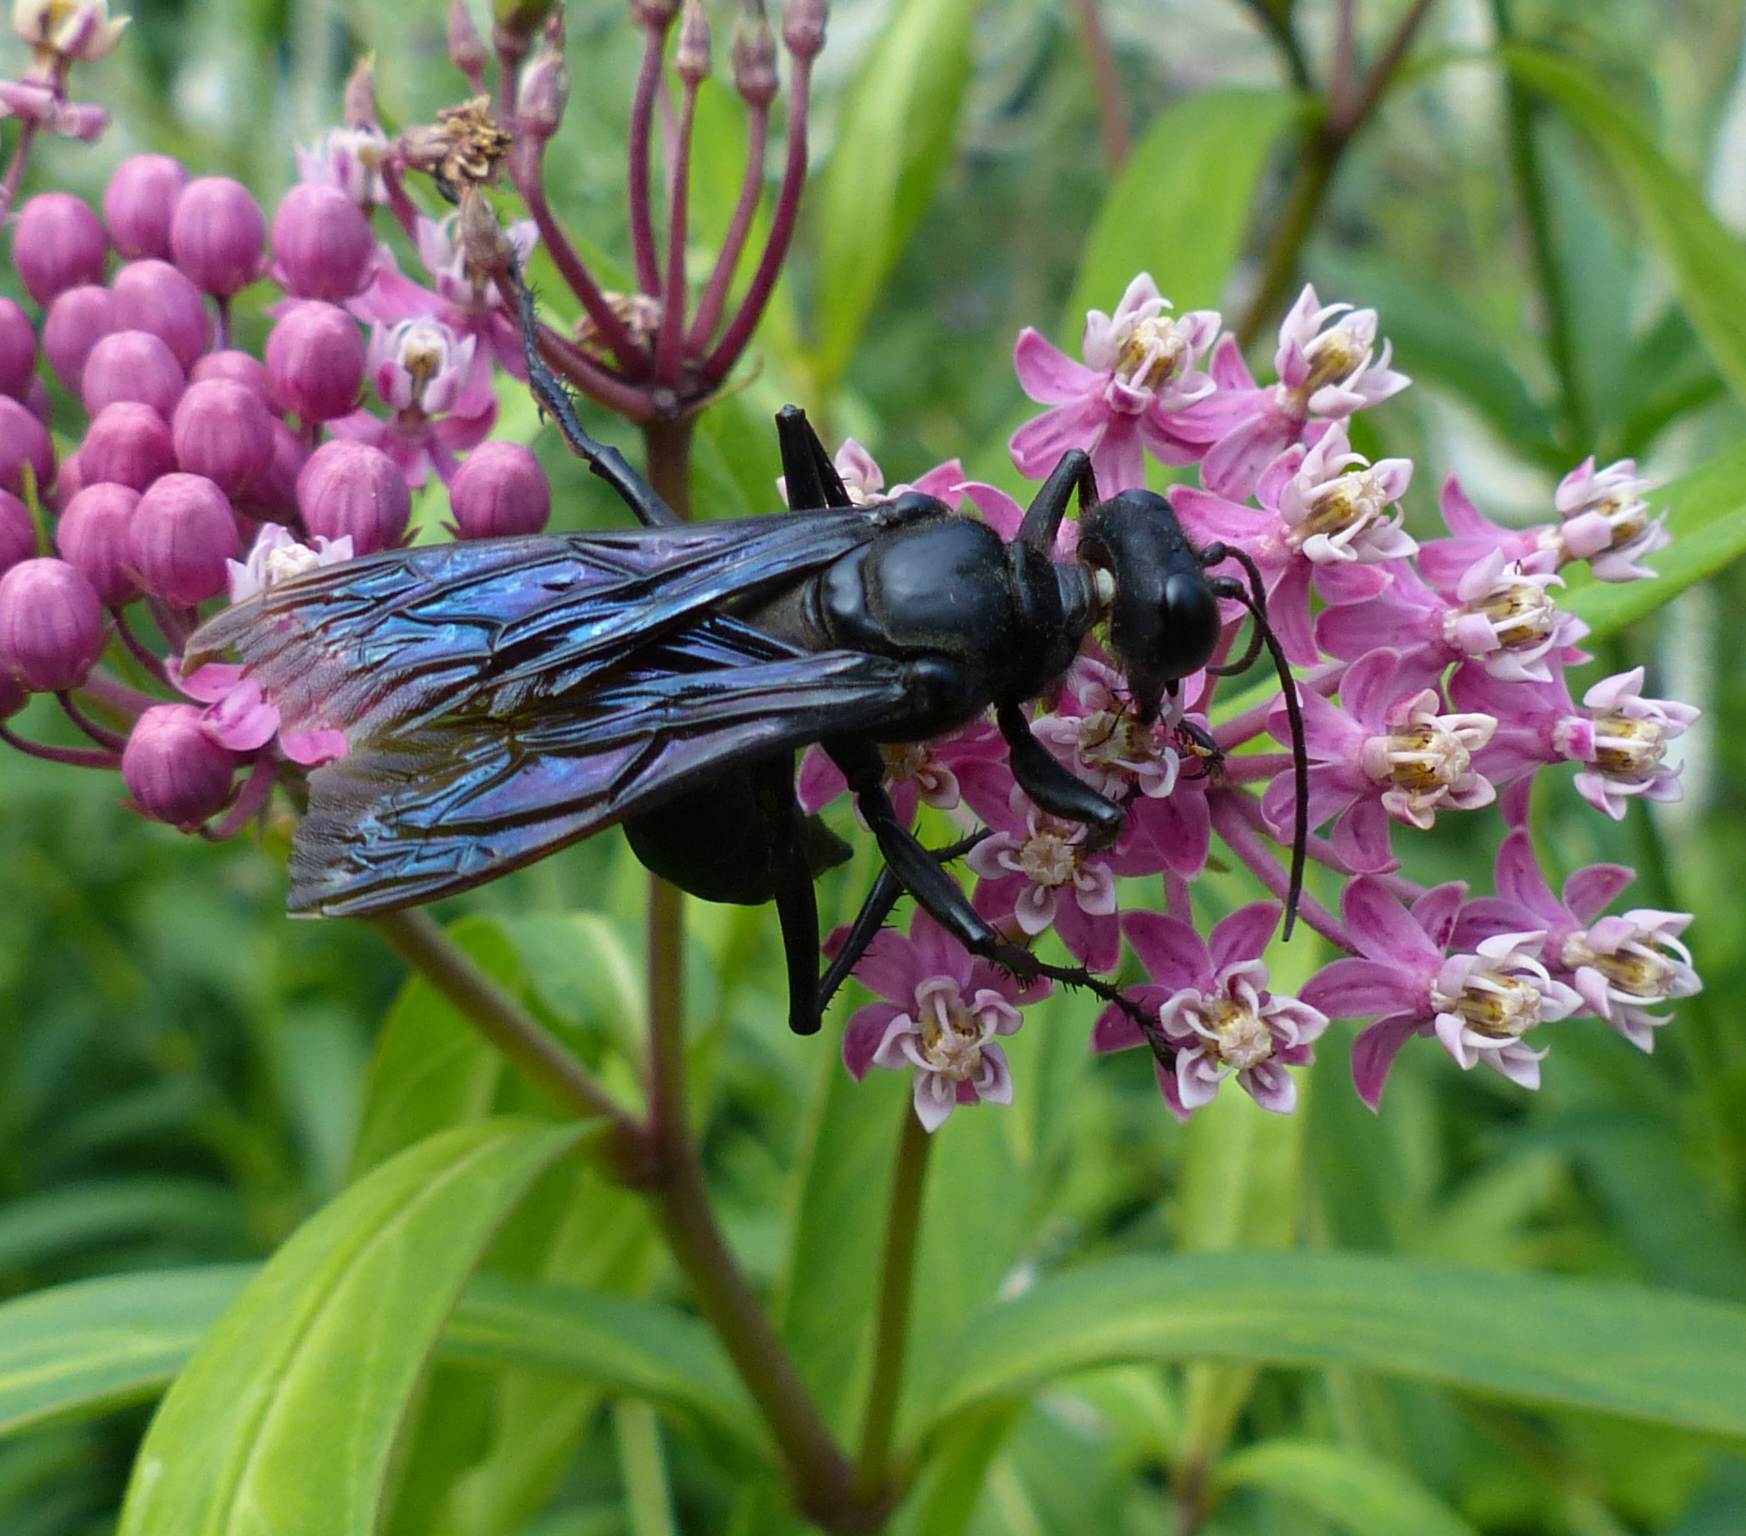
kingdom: Animalia
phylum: Arthropoda
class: Insecta
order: Hymenoptera
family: Sphecidae
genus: Sphex
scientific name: Sphex pensylvanicus
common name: Great black digger wasp
